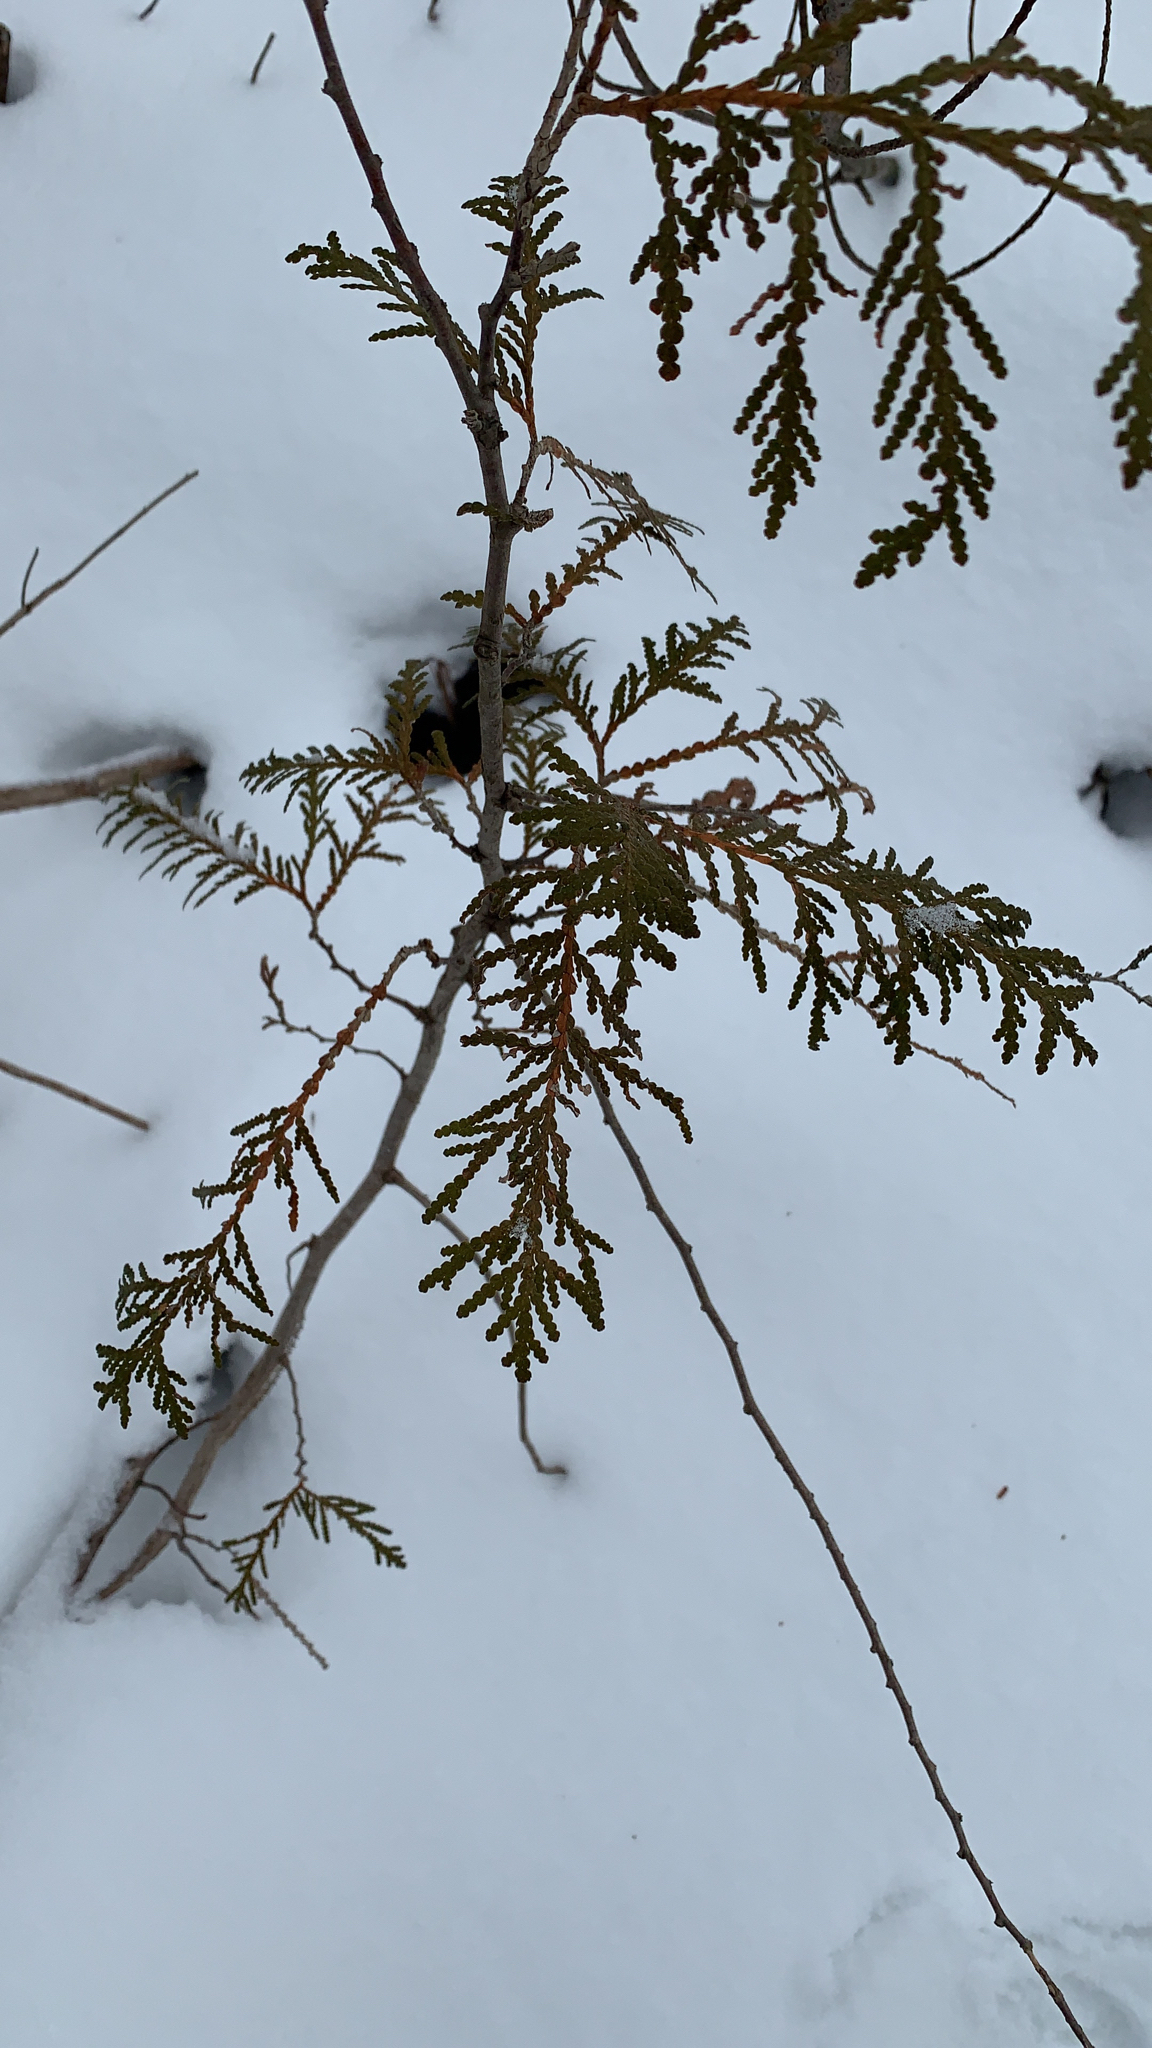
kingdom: Plantae
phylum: Tracheophyta
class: Pinopsida
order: Pinales
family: Cupressaceae
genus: Thuja
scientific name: Thuja occidentalis
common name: Northern white-cedar
